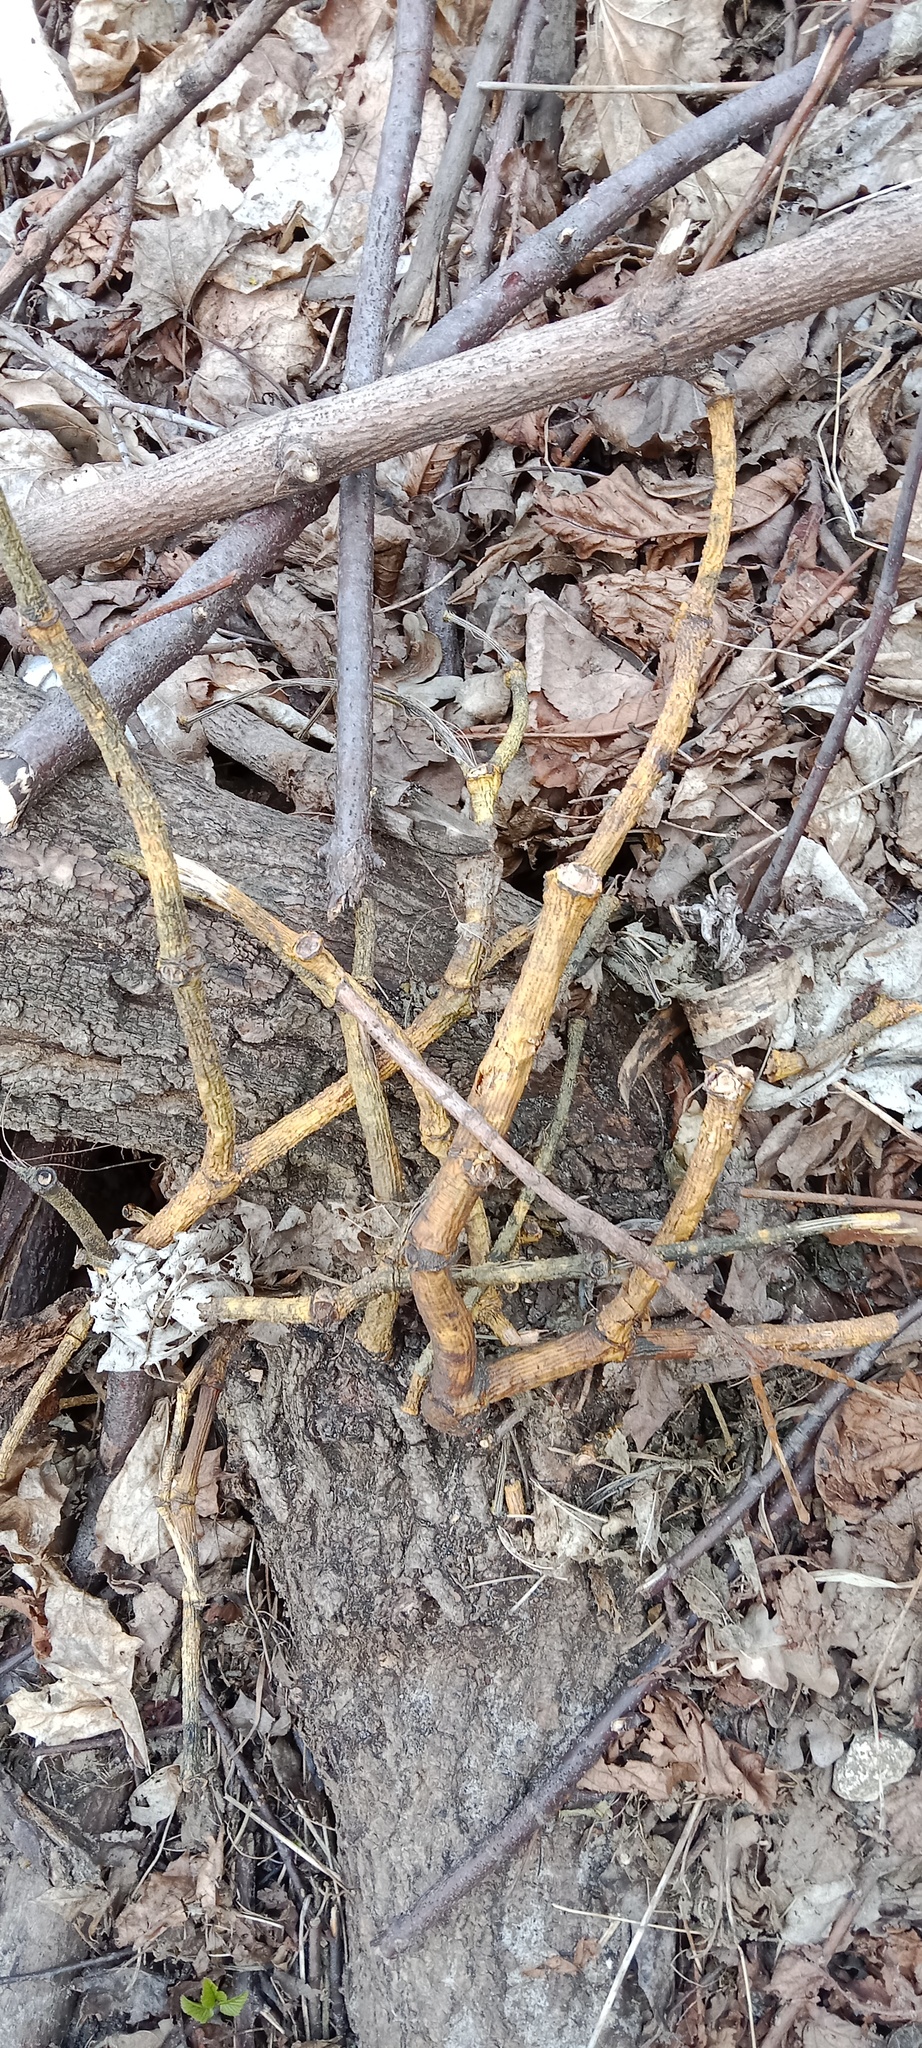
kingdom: Plantae
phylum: Tracheophyta
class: Magnoliopsida
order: Santalales
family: Viscaceae
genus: Viscum
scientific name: Viscum album
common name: Mistletoe
